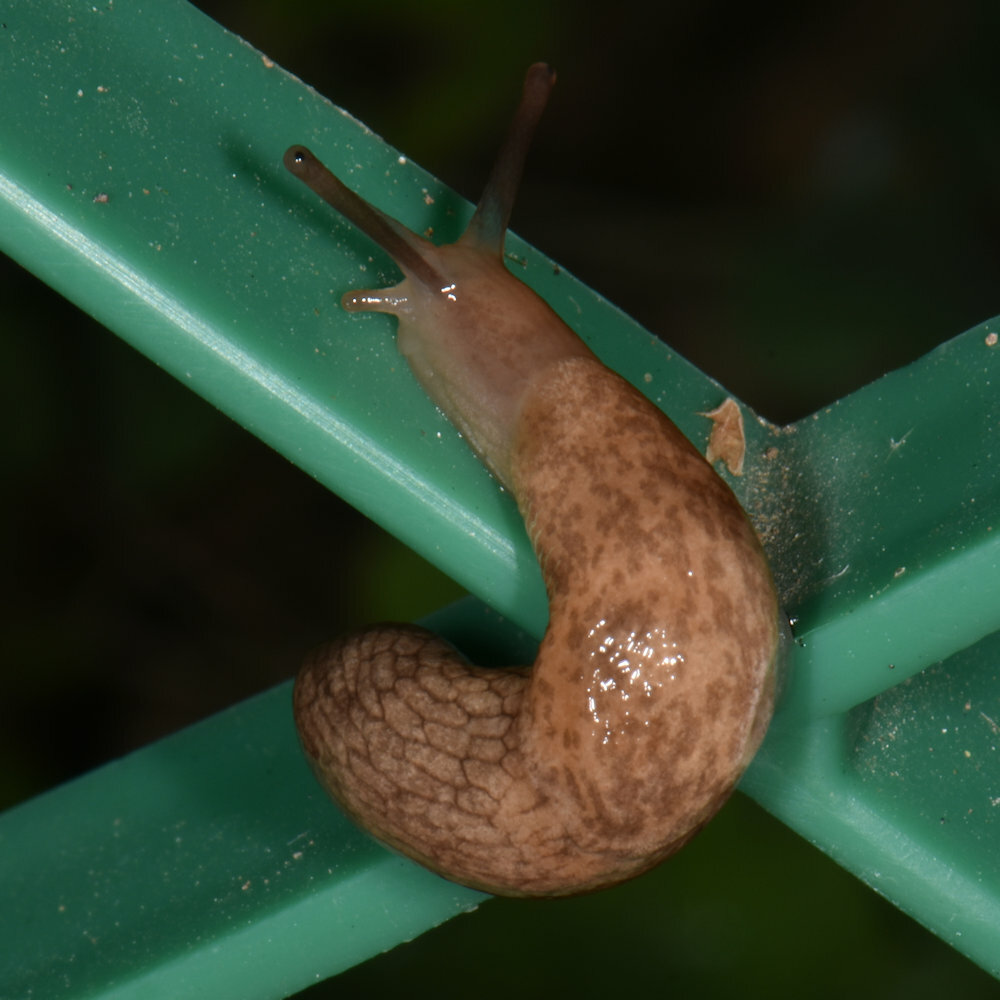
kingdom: Animalia
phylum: Mollusca
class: Gastropoda
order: Stylommatophora
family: Agriolimacidae
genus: Deroceras
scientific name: Deroceras reticulatum
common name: Gray field slug
